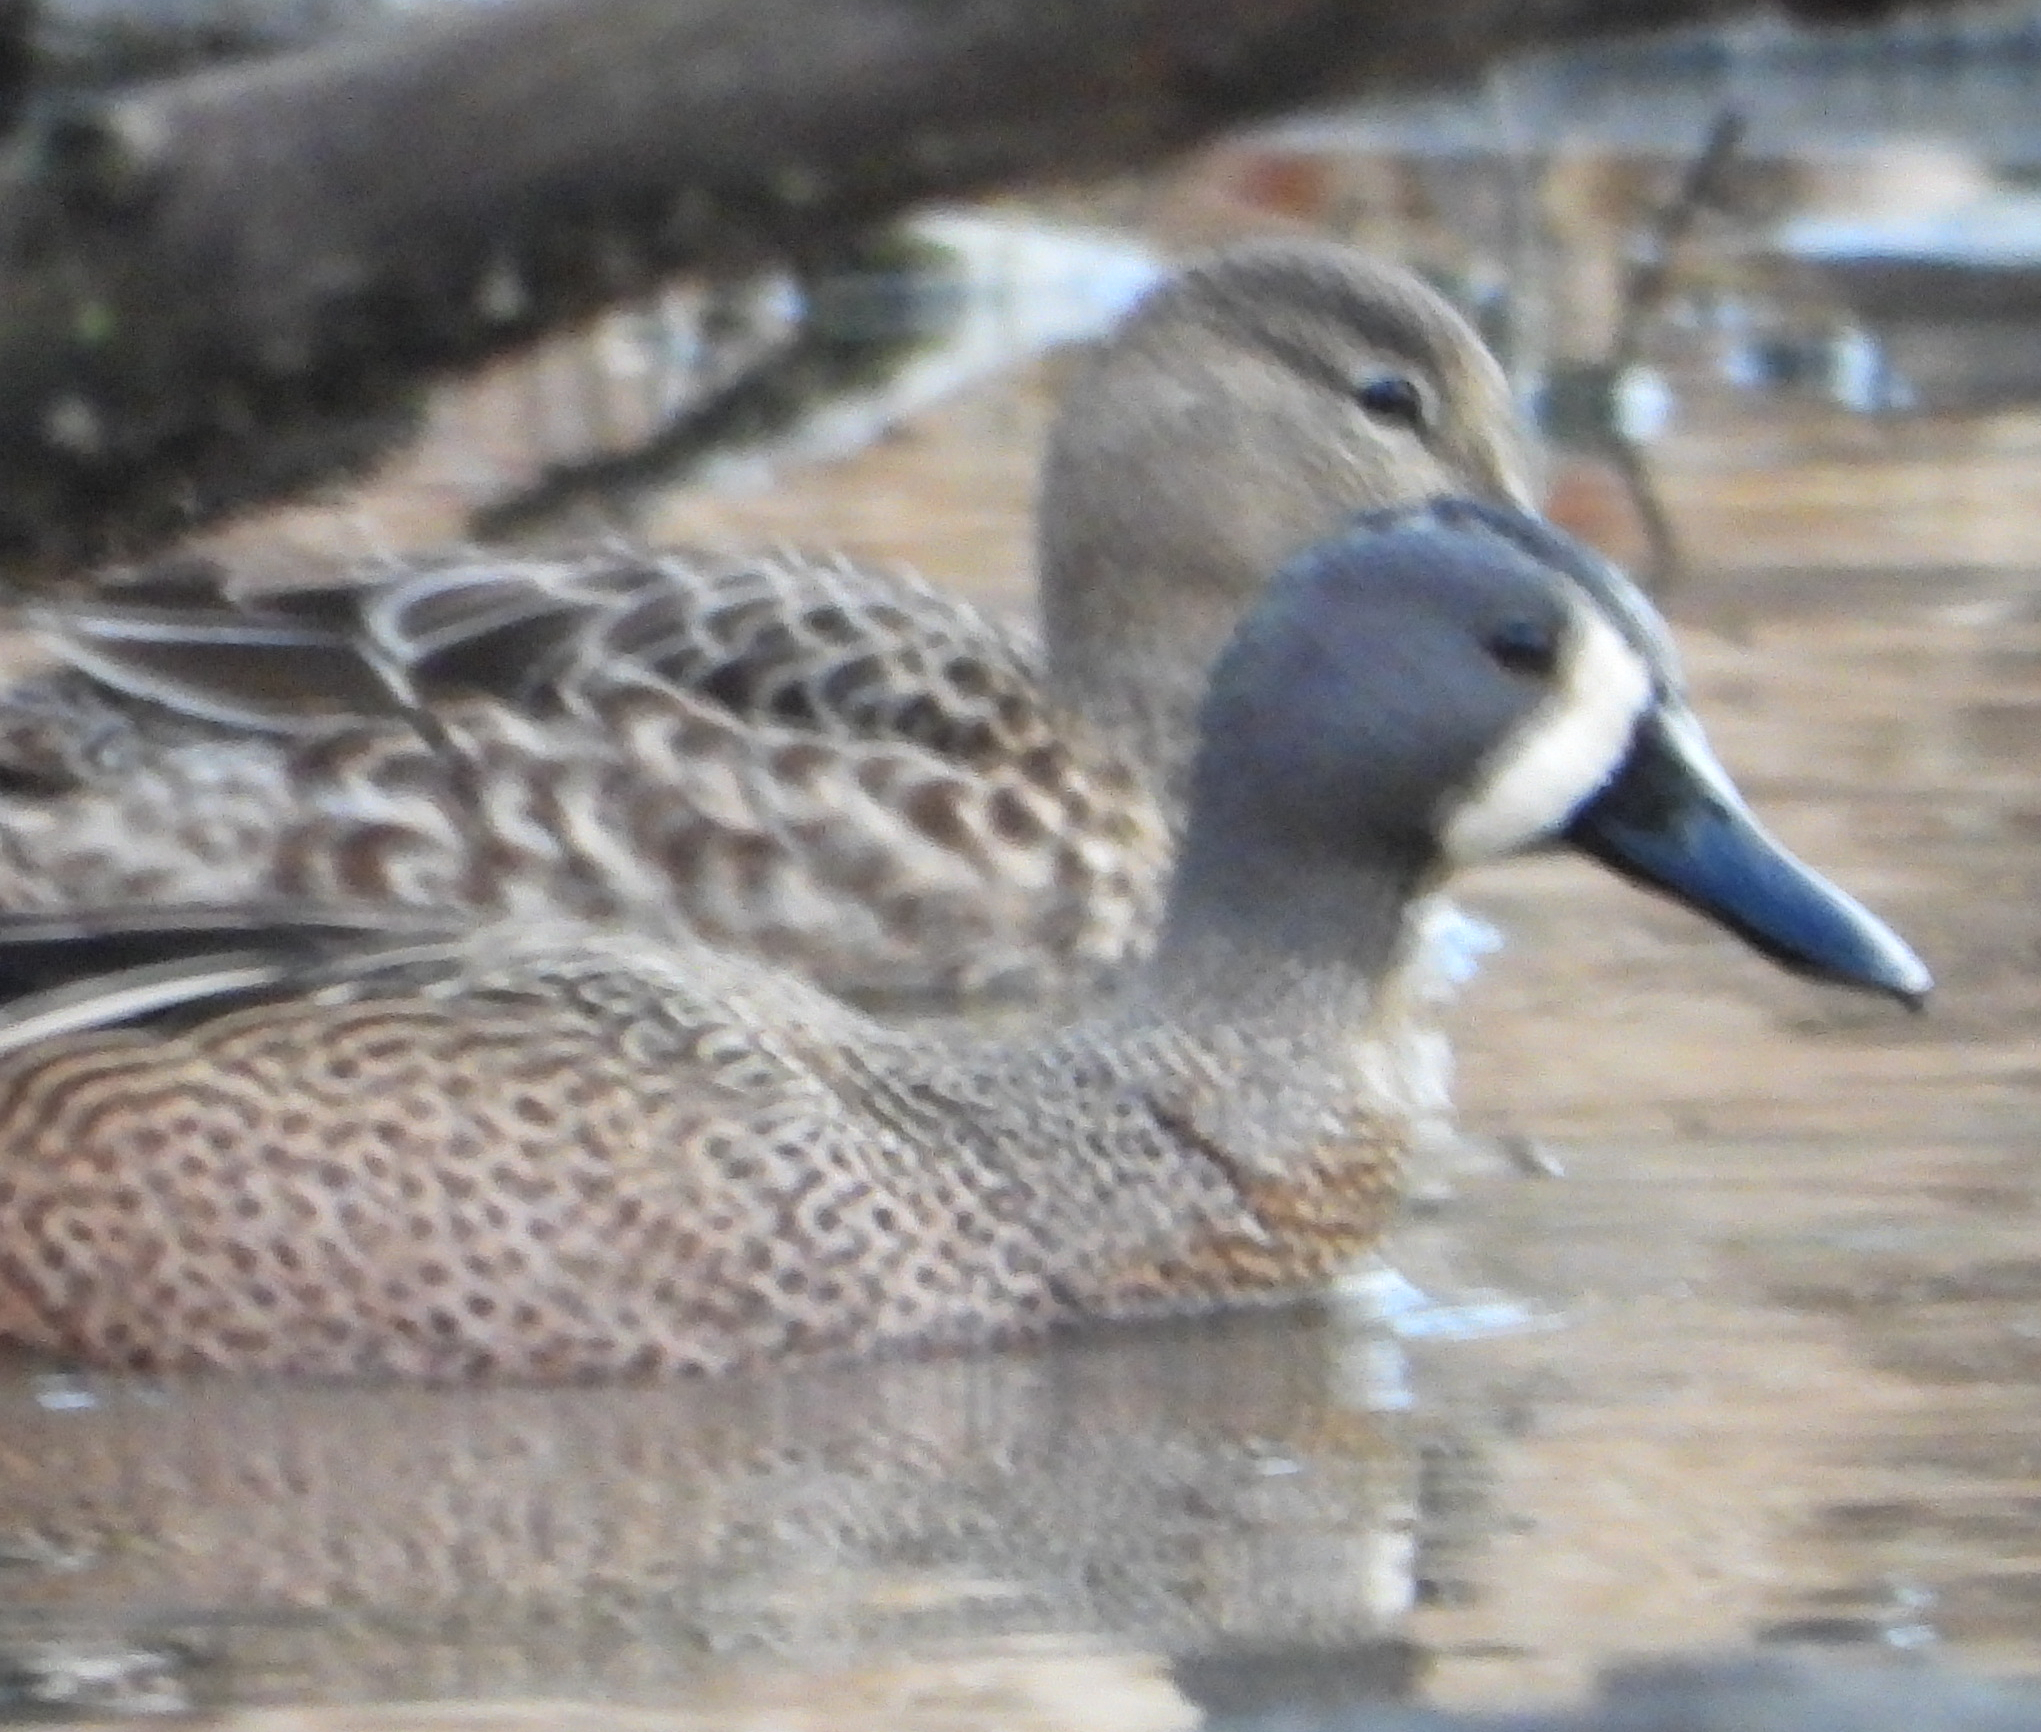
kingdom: Animalia
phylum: Chordata
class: Aves
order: Anseriformes
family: Anatidae
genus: Spatula
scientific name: Spatula discors
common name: Blue-winged teal
